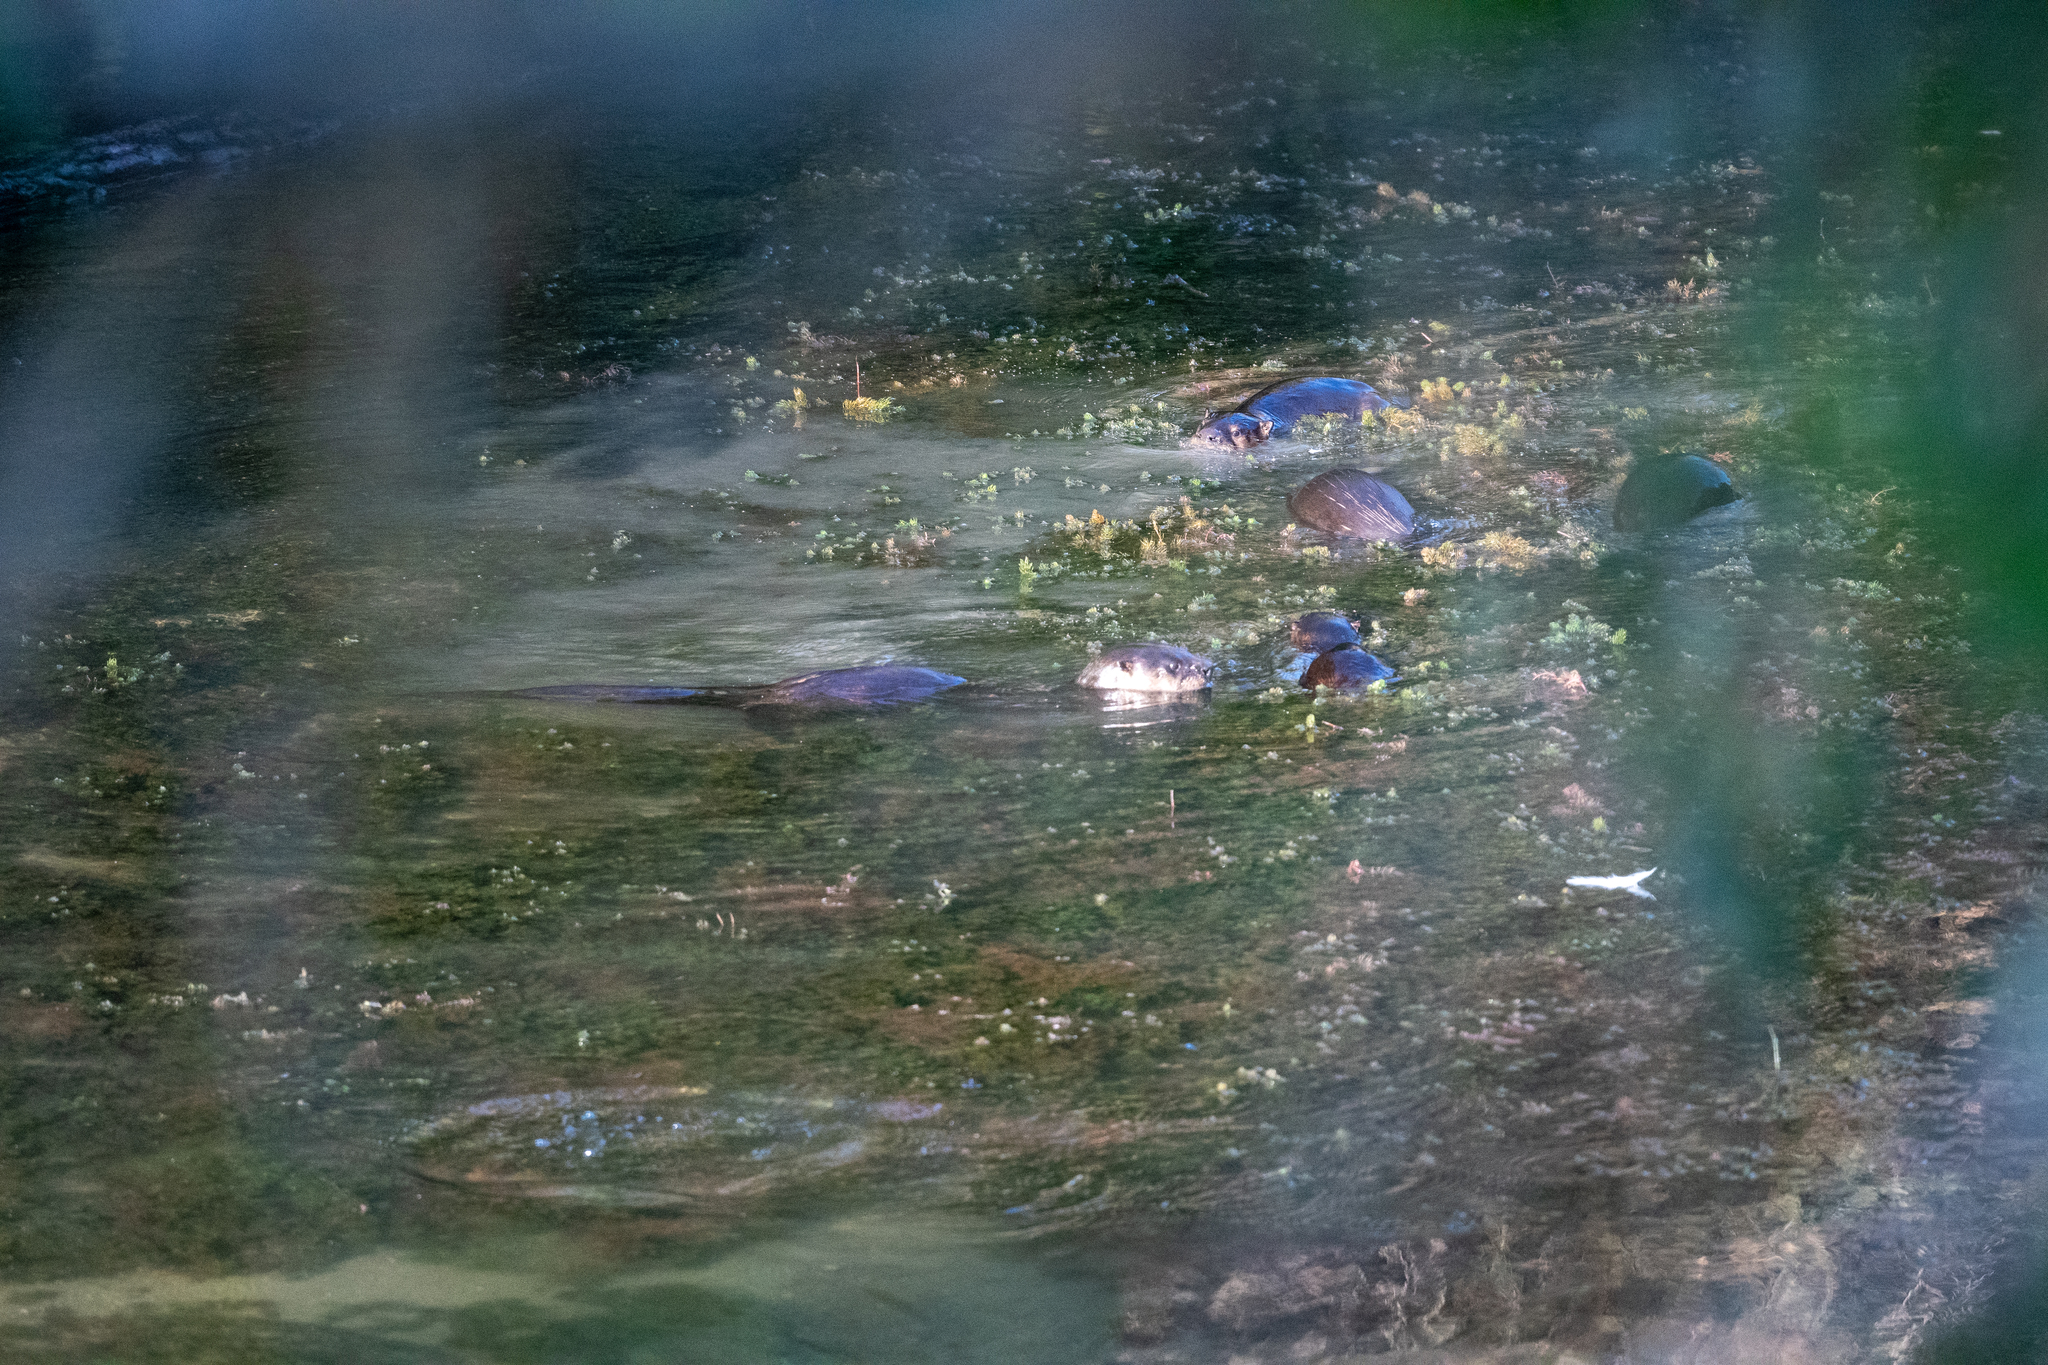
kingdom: Animalia
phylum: Chordata
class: Mammalia
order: Carnivora
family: Mustelidae
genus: Lontra
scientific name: Lontra canadensis
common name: North american river otter
